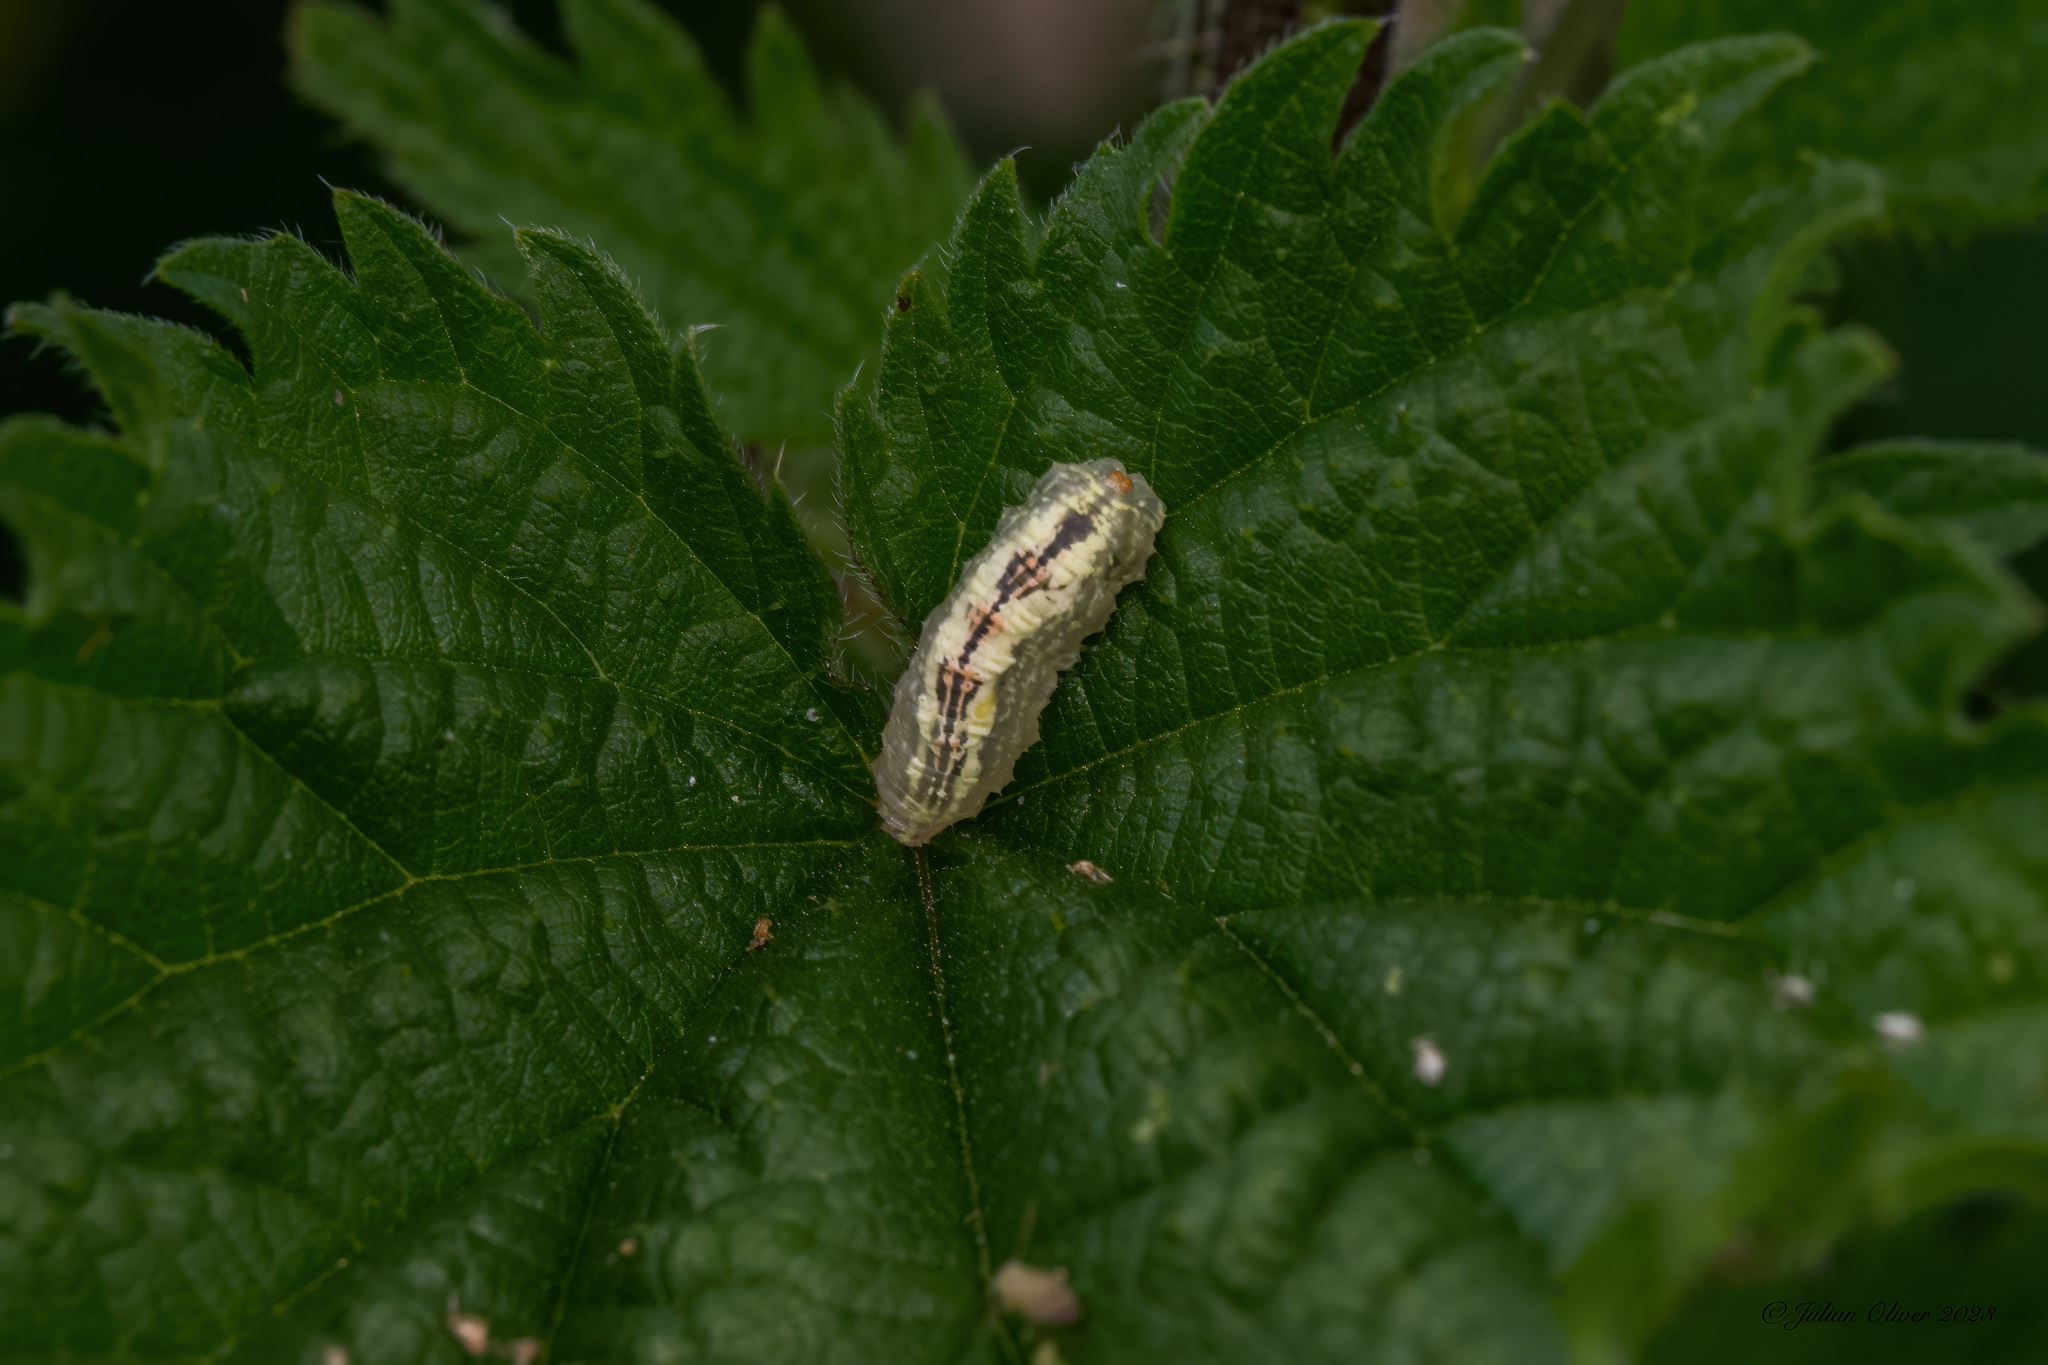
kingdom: Animalia
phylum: Arthropoda
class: Insecta
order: Diptera
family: Syrphidae
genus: Syrphus
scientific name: Syrphus
